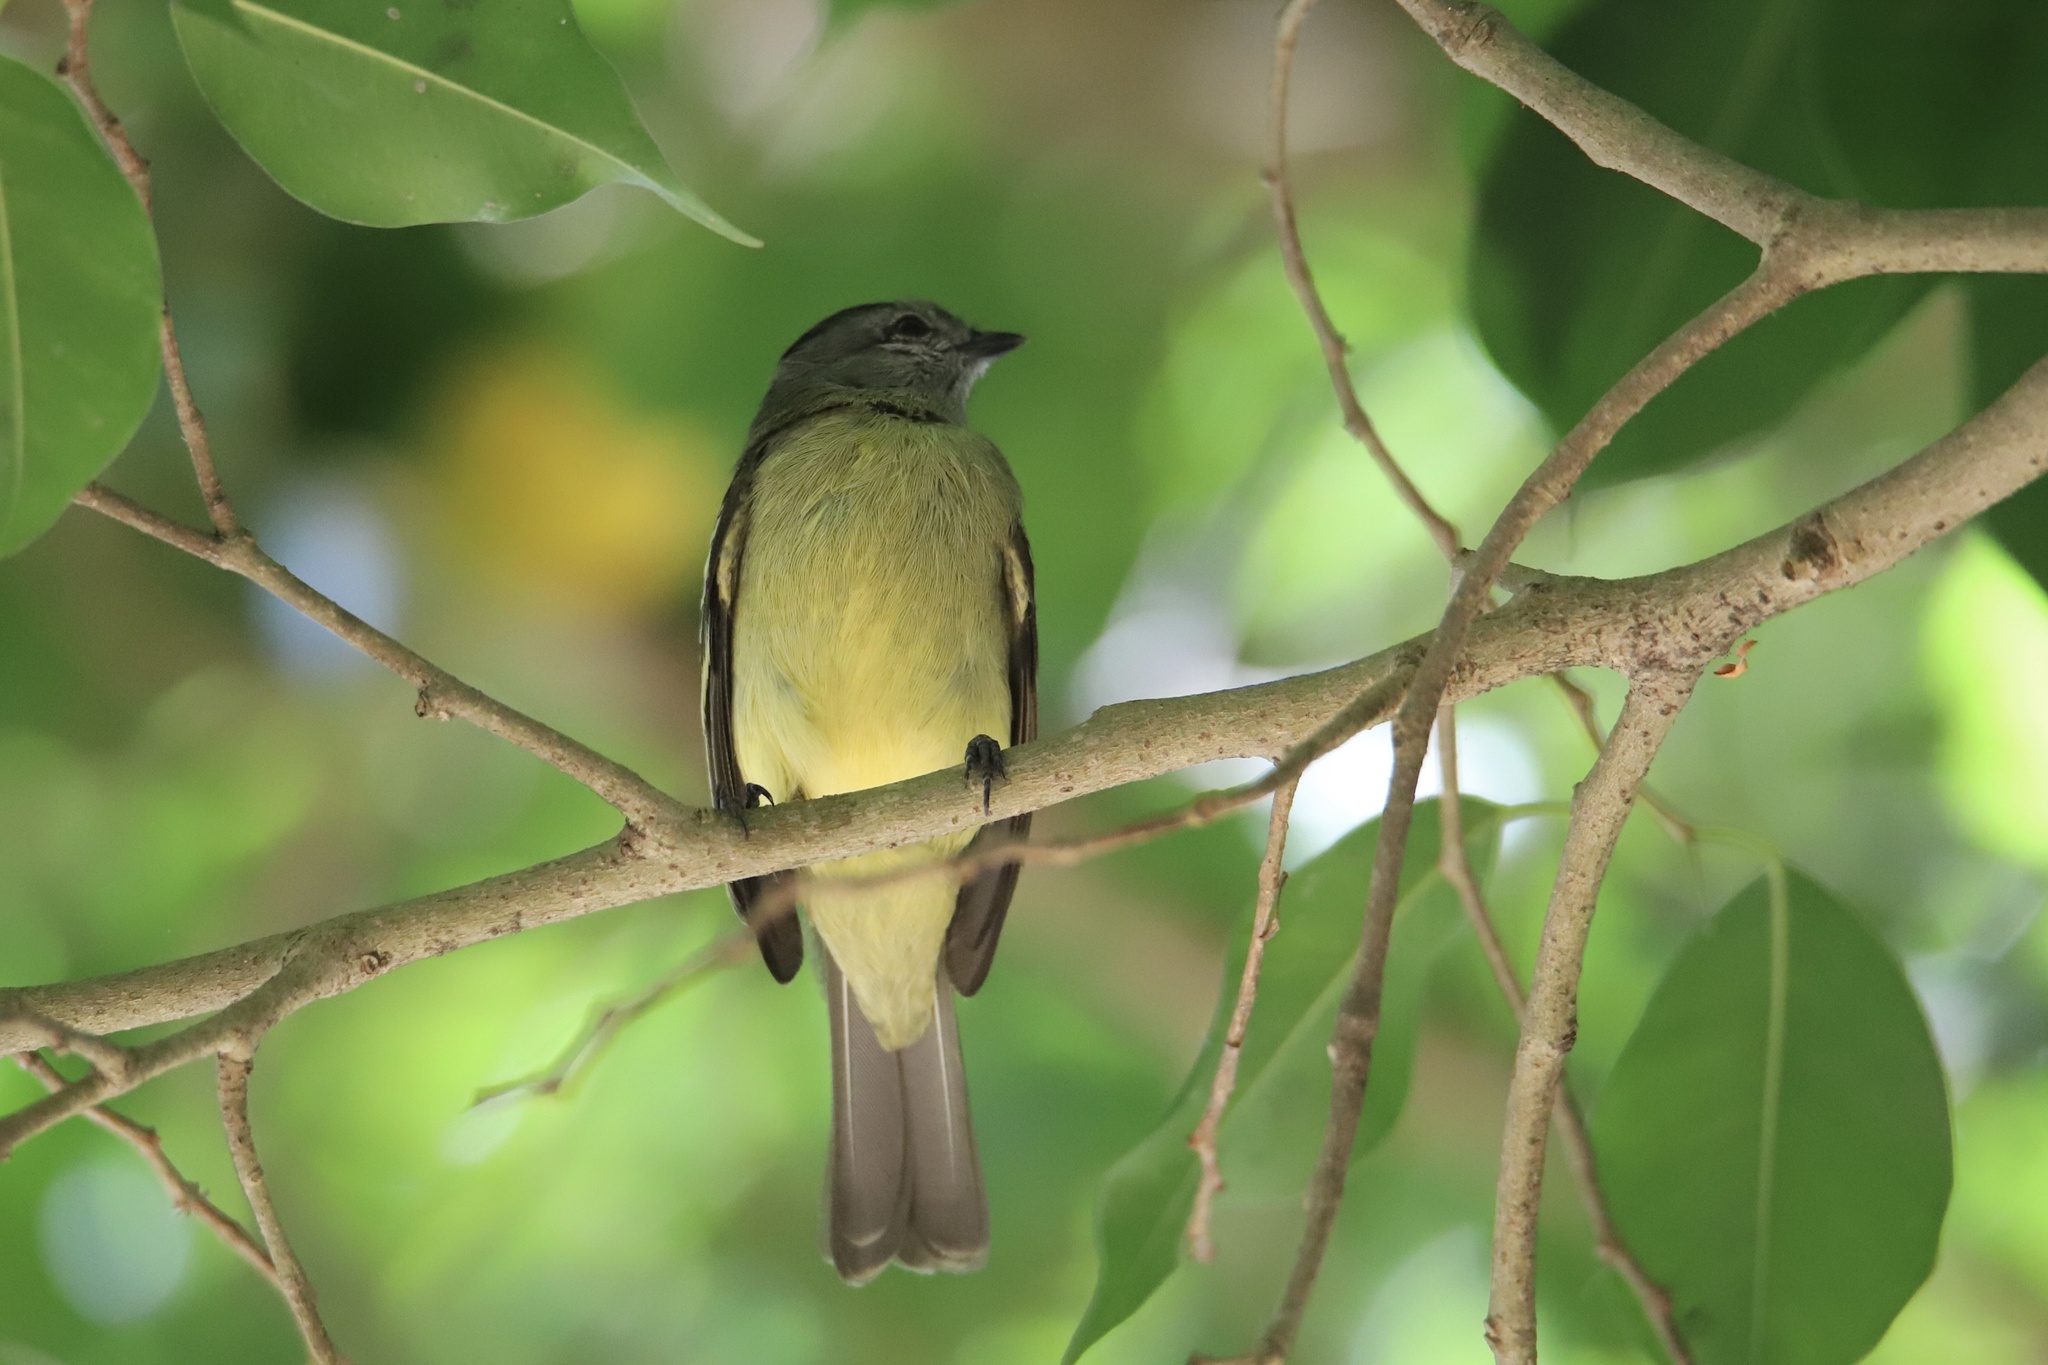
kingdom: Animalia
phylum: Chordata
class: Aves
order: Passeriformes
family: Tyrannidae
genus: Tyrannulus
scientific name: Tyrannulus elatus
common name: Yellow-crowned tyrannulet
